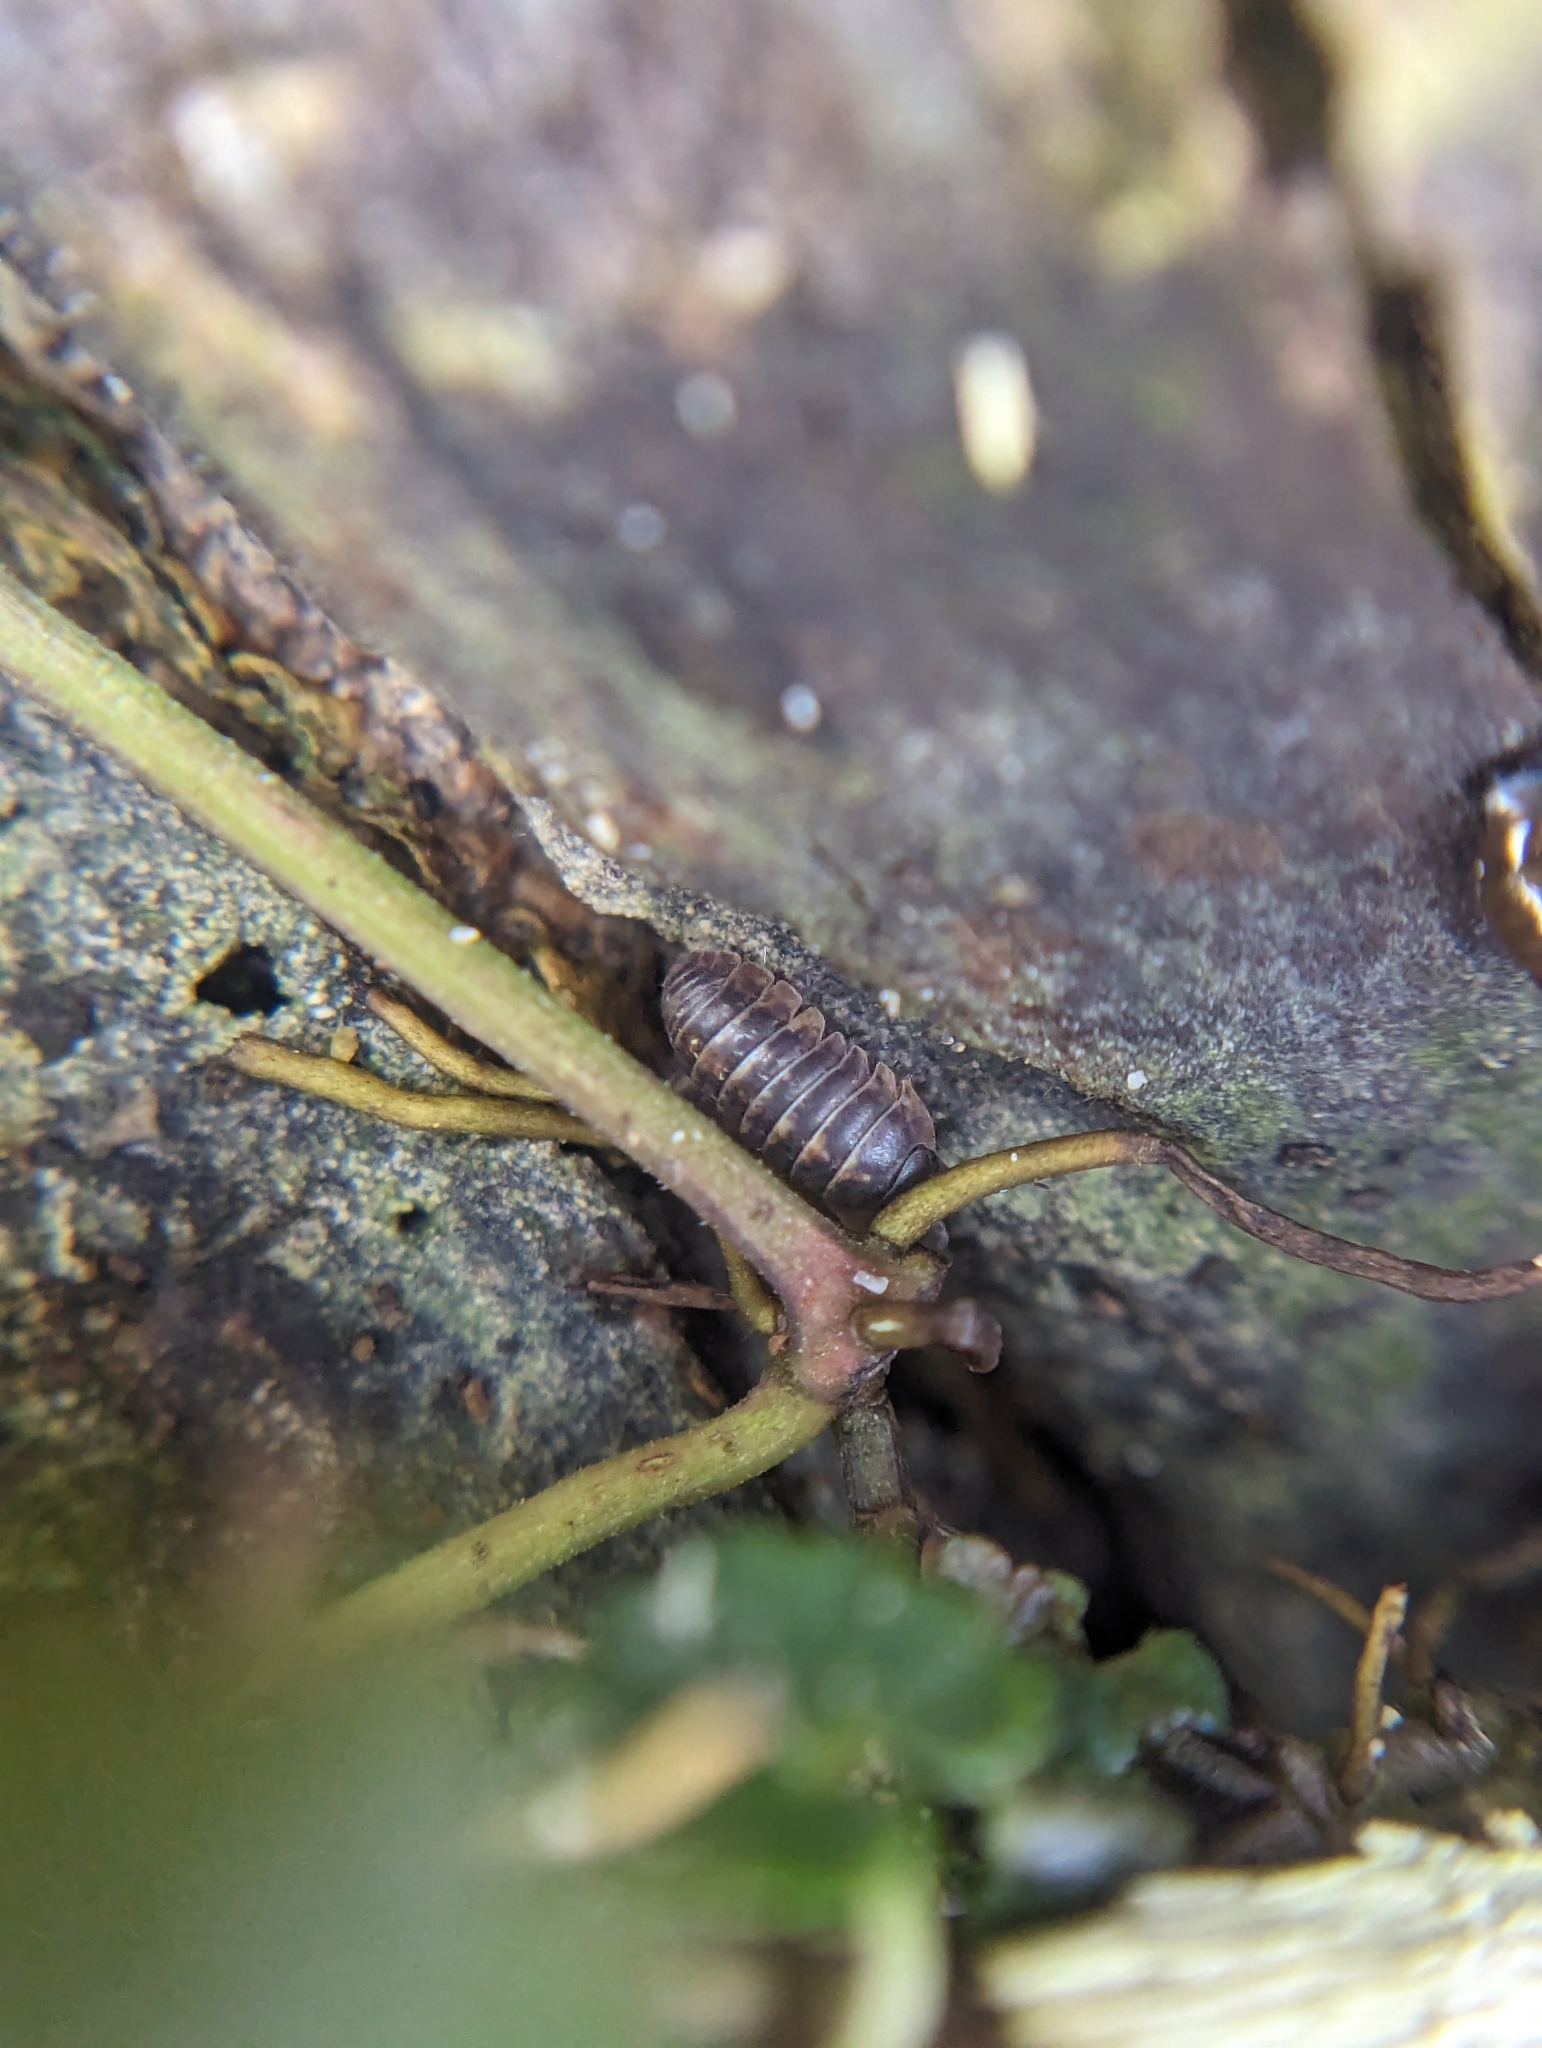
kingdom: Animalia
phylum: Arthropoda
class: Malacostraca
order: Isopoda
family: Armadillidiidae
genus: Armadillidium
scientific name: Armadillidium vulgare
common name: Common pill woodlouse
